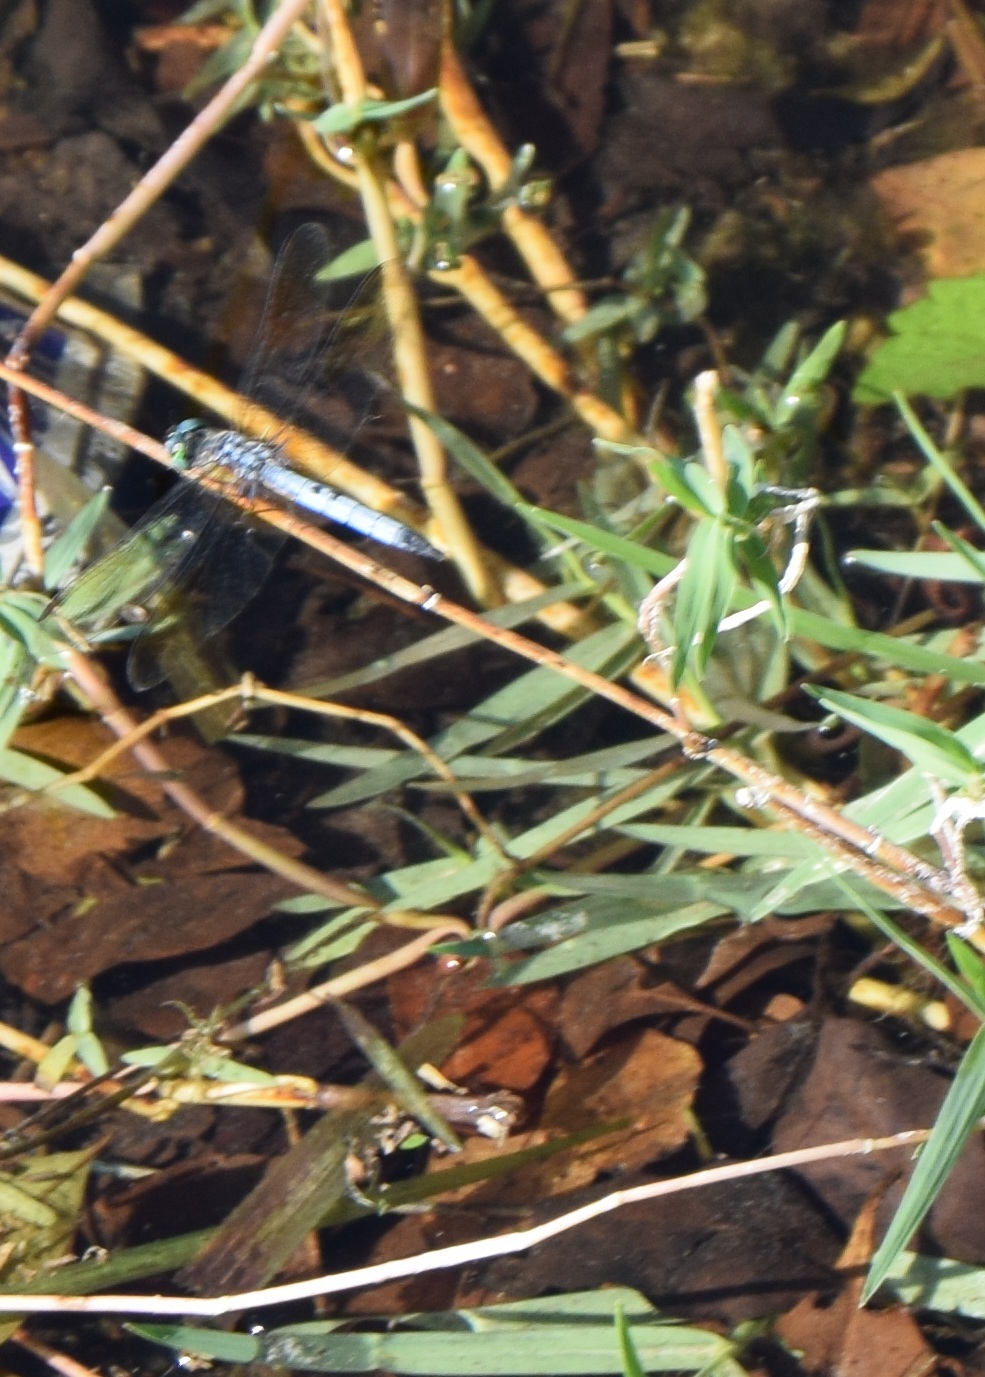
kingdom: Animalia
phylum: Arthropoda
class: Insecta
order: Odonata
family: Libellulidae
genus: Pachydiplax
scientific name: Pachydiplax longipennis
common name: Blue dasher
